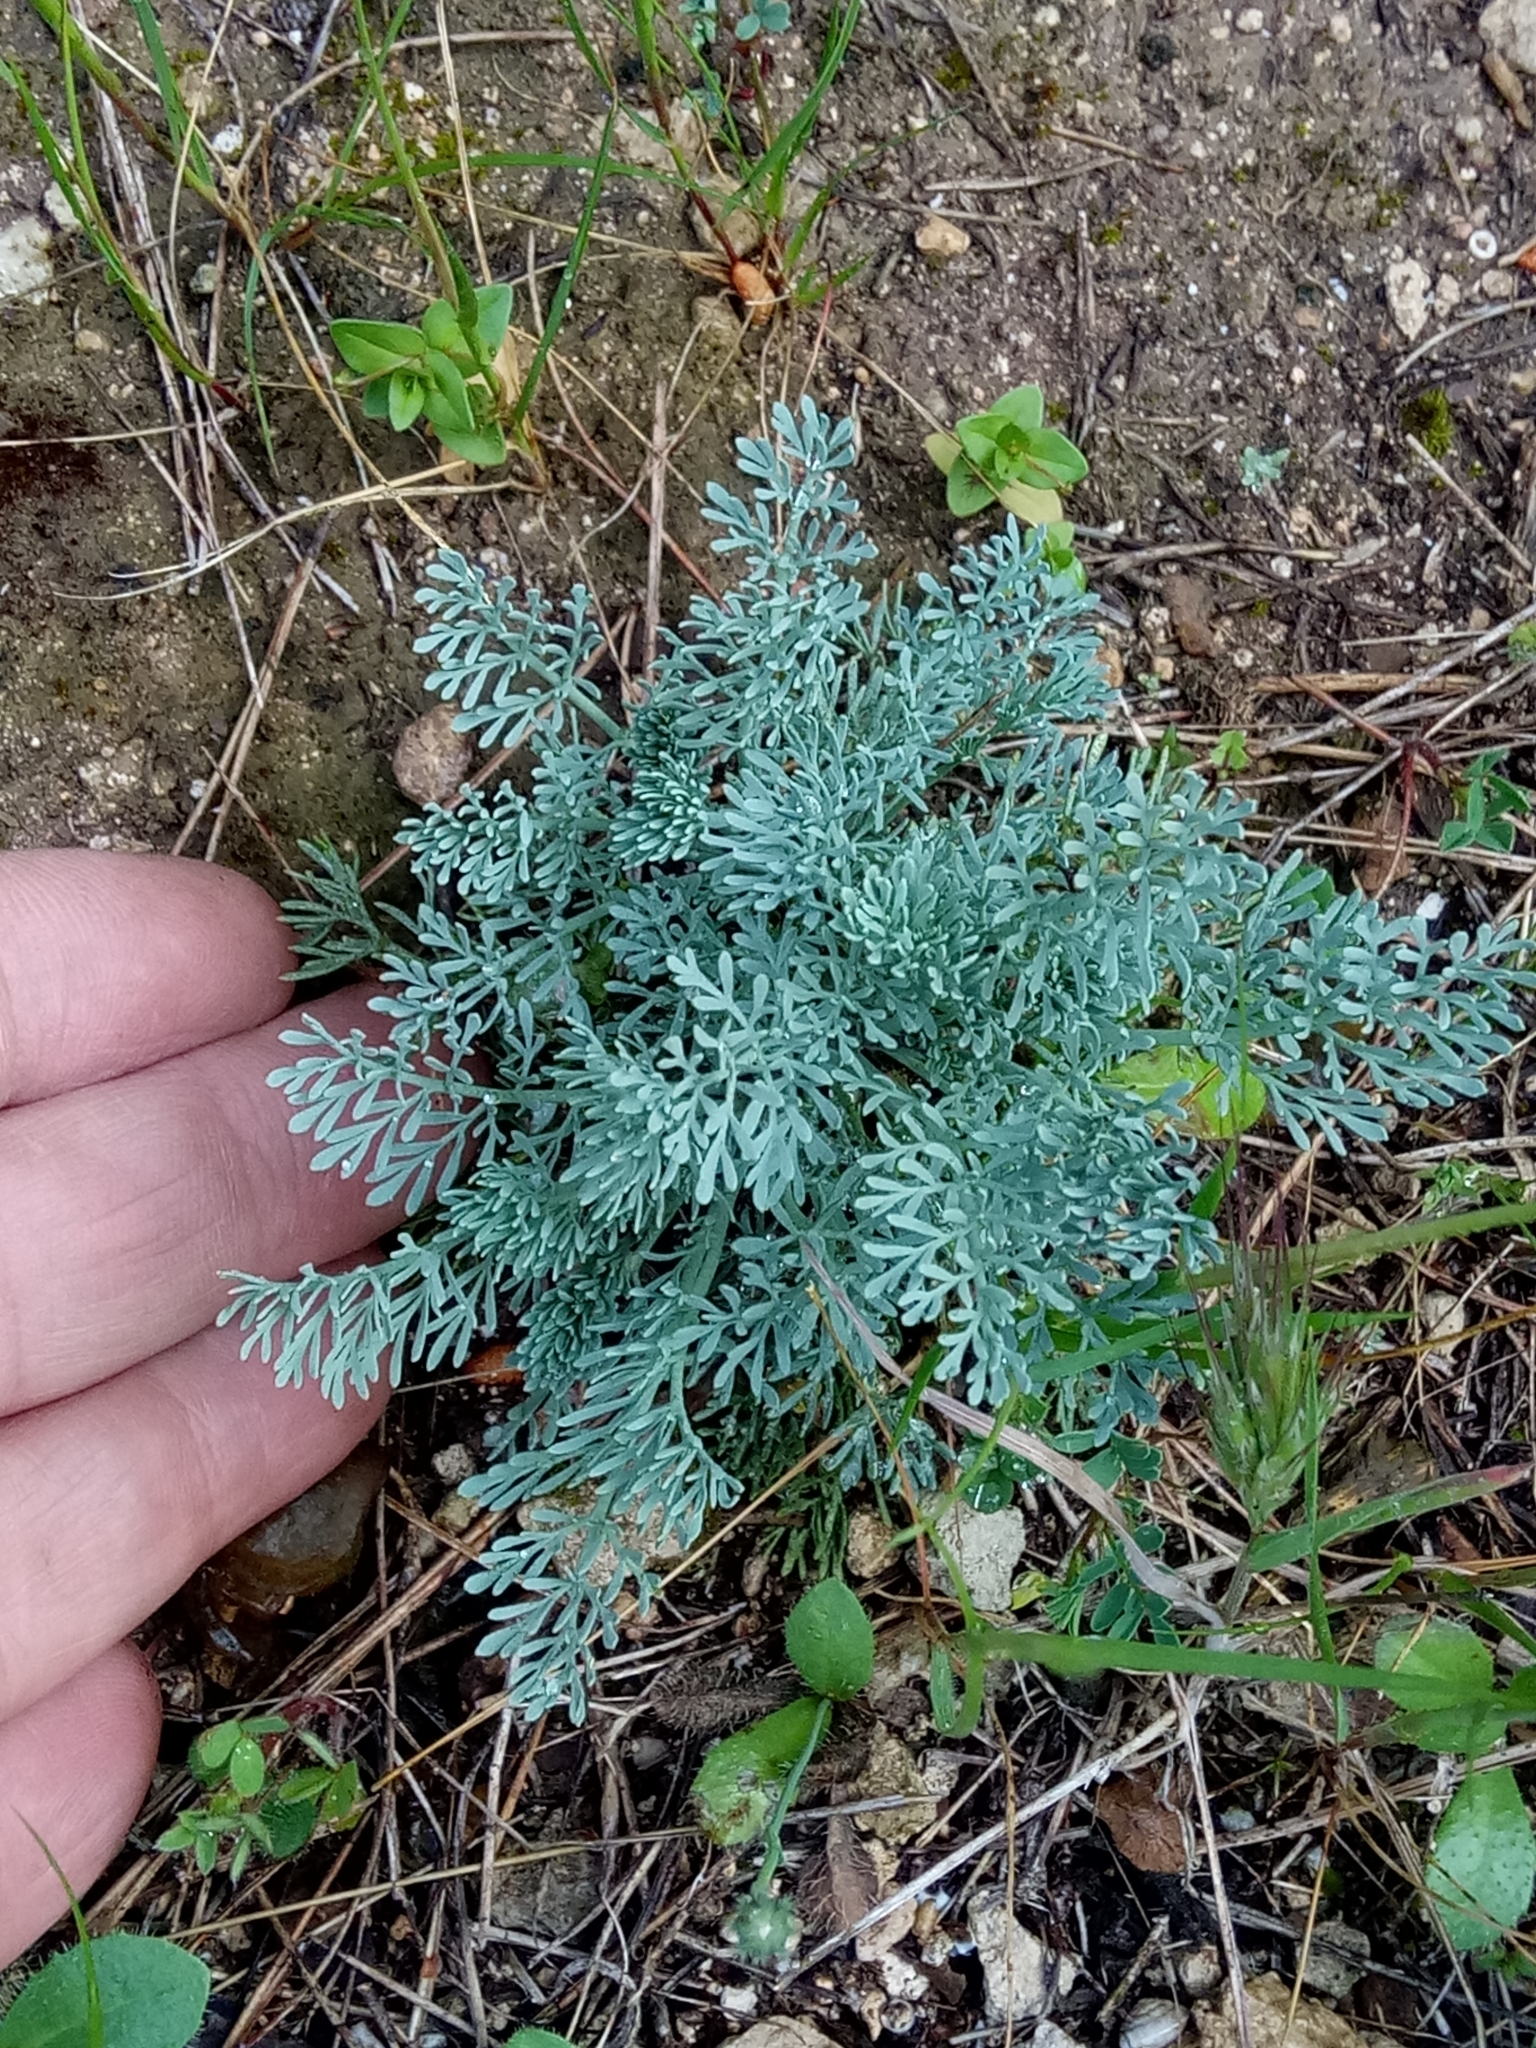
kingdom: Plantae
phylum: Tracheophyta
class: Magnoliopsida
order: Sapindales
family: Rutaceae
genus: Ruta
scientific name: Ruta montana
